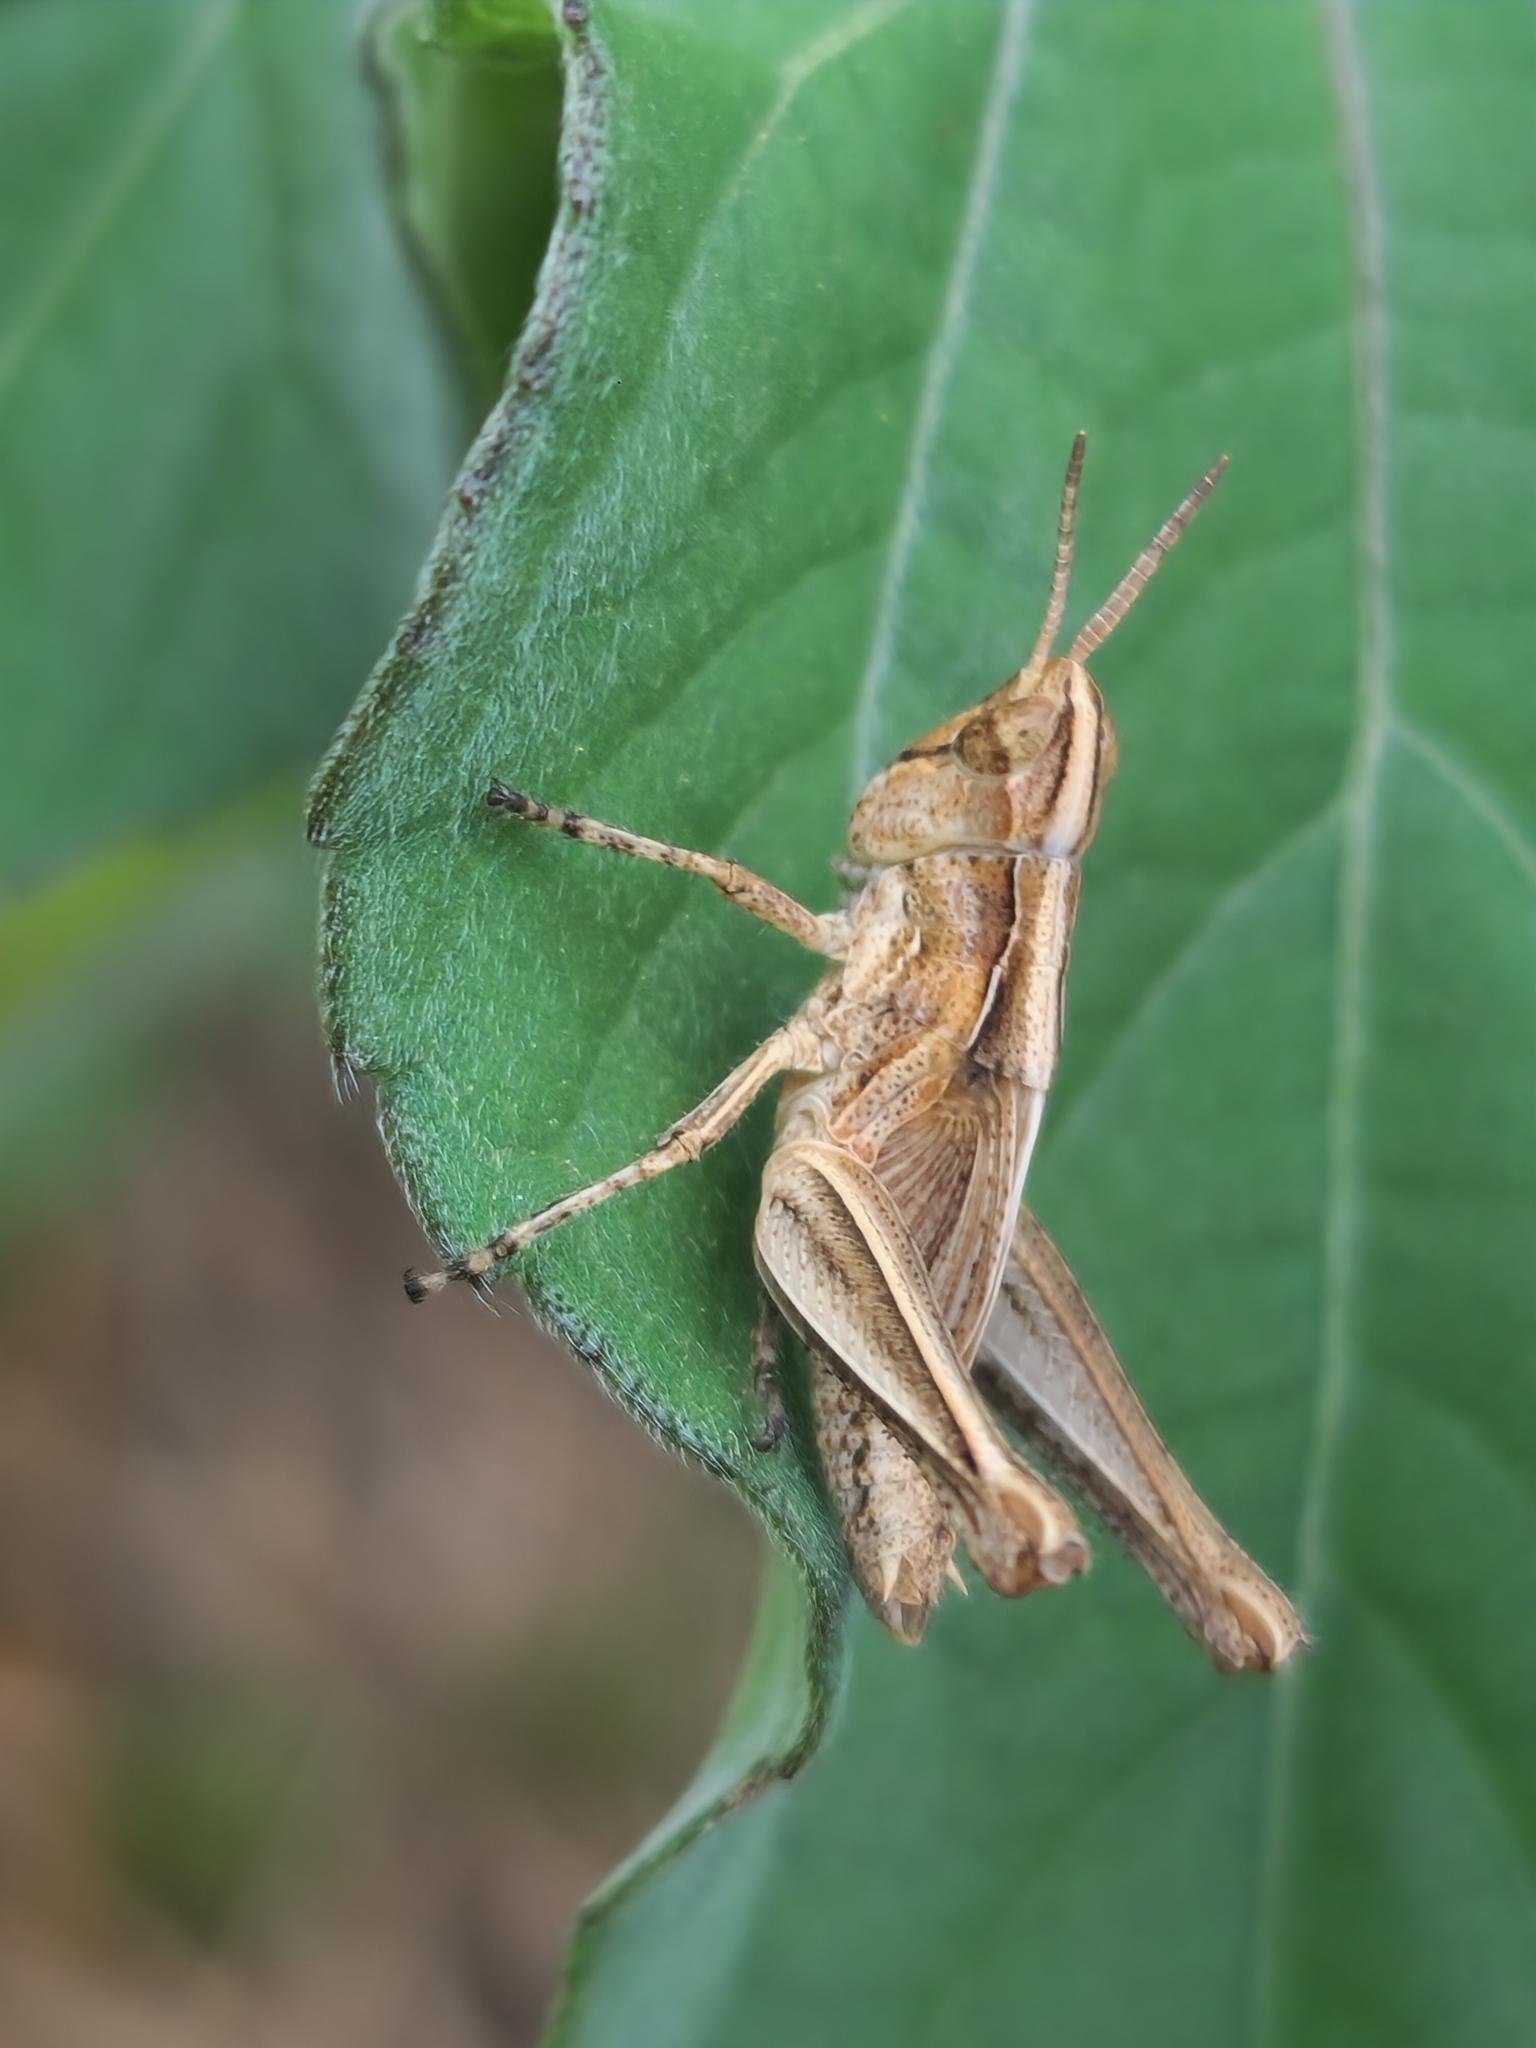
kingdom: Animalia
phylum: Arthropoda
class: Insecta
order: Orthoptera
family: Acrididae
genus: Orphulella
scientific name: Orphulella punctata
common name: Slant-faced grasshopper
